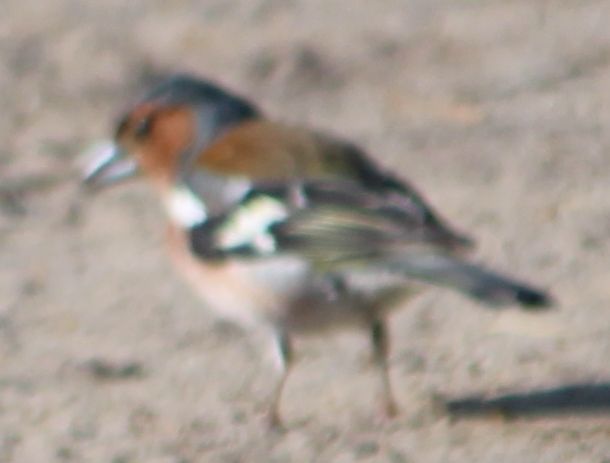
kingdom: Animalia
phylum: Chordata
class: Aves
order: Passeriformes
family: Fringillidae
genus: Fringilla
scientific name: Fringilla coelebs
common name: Common chaffinch
